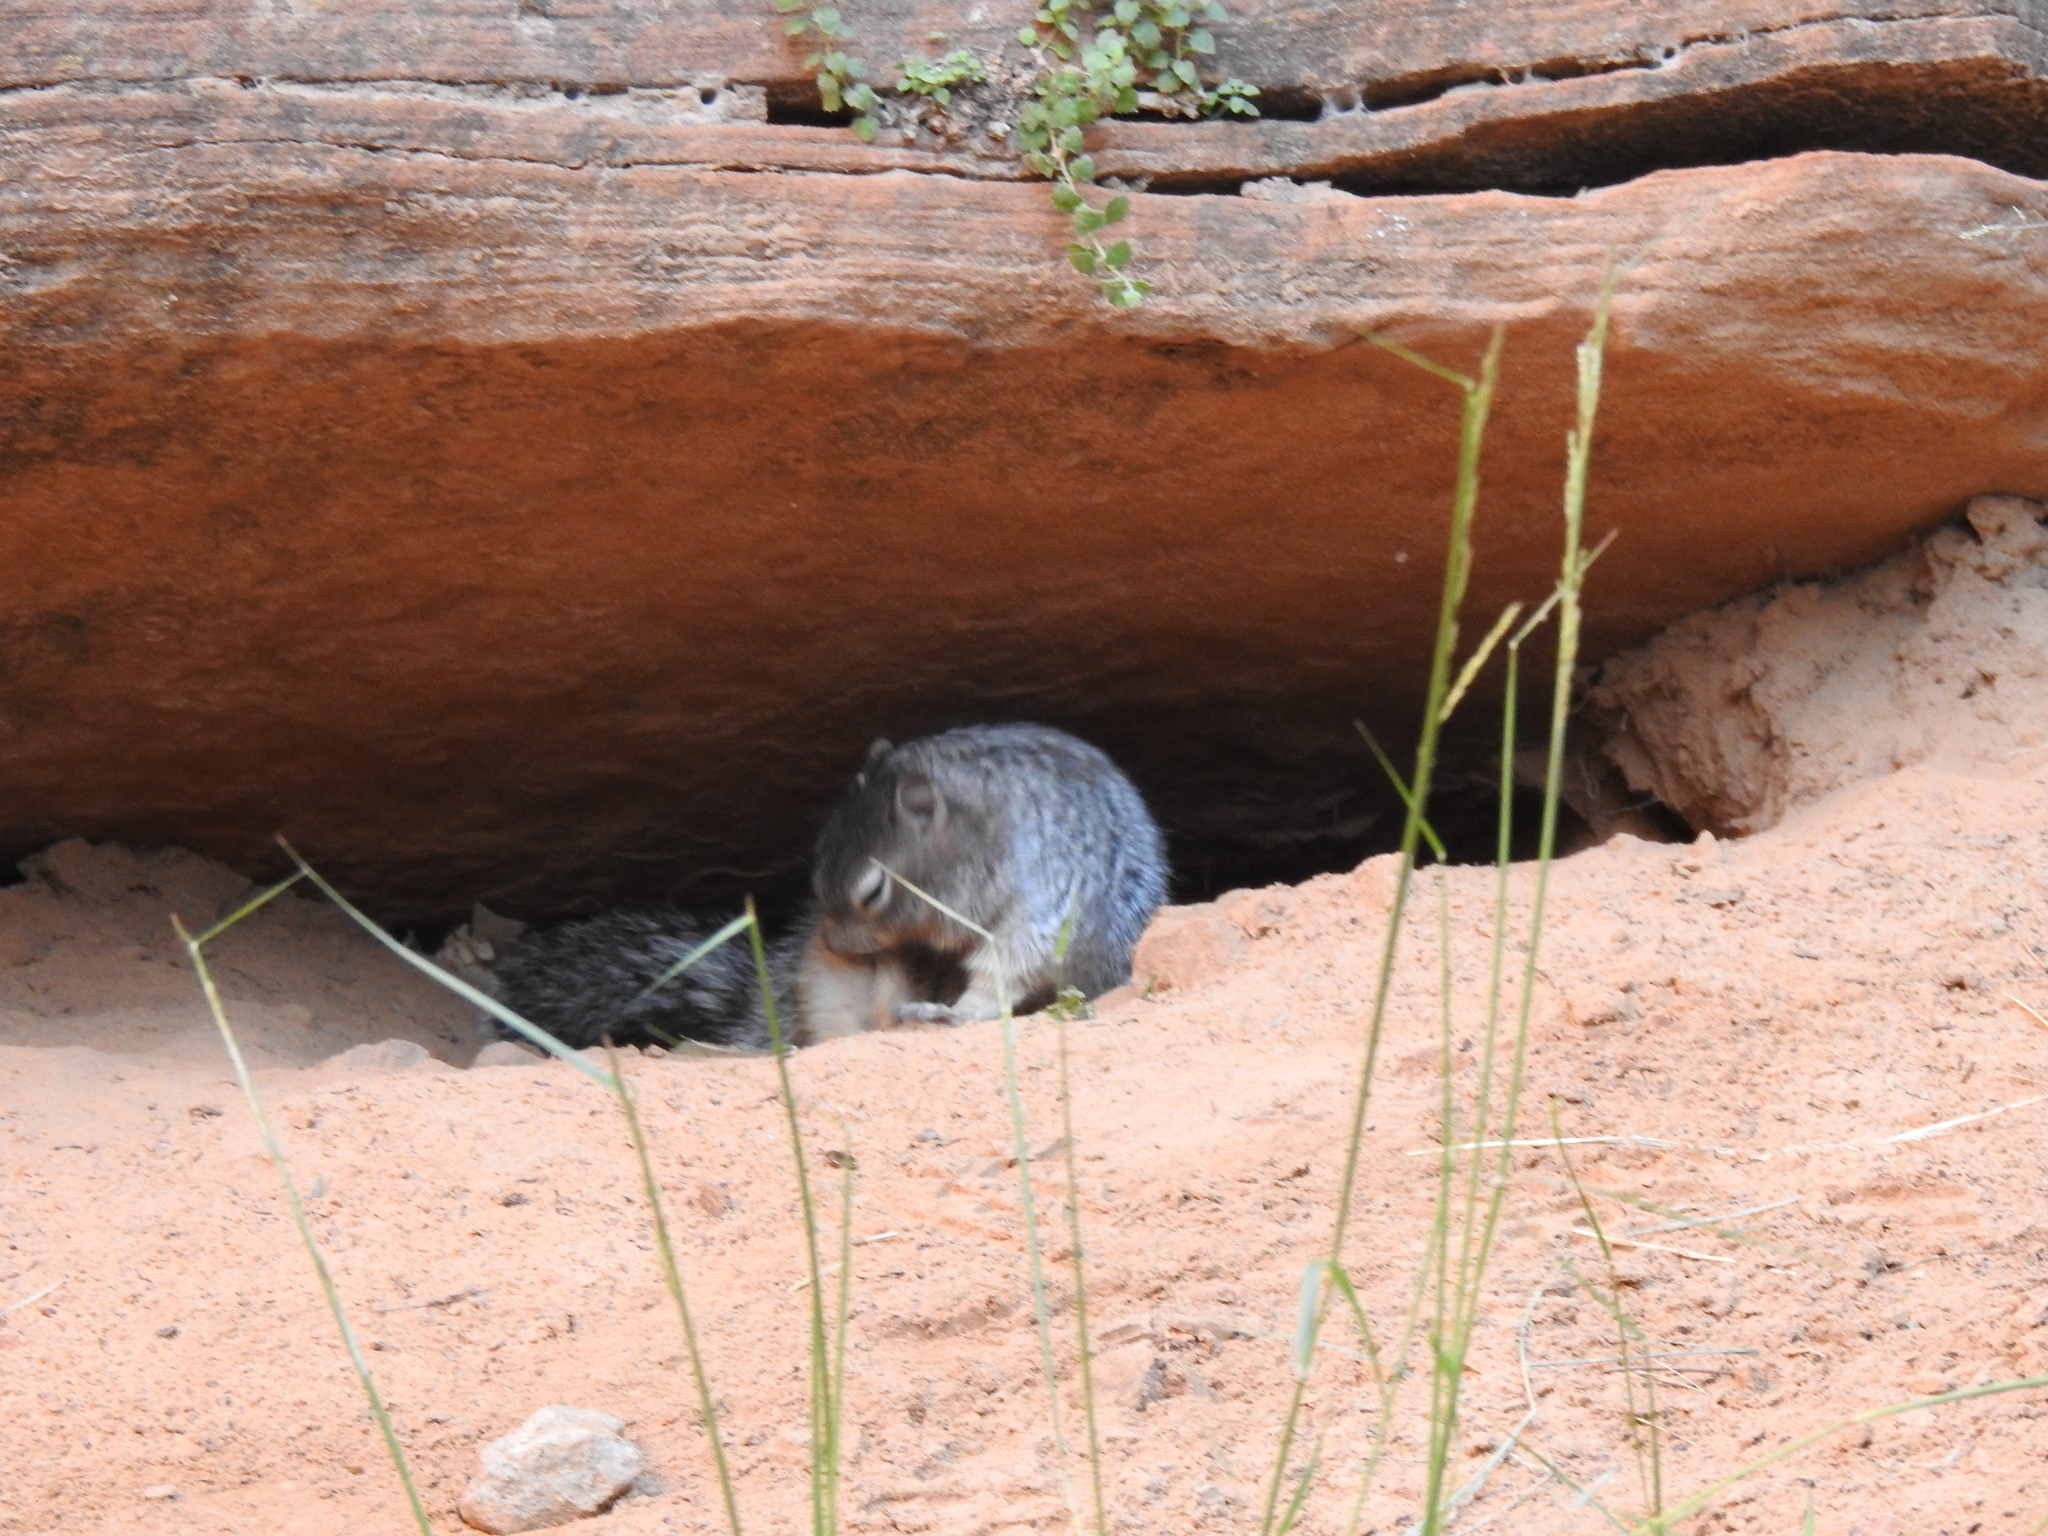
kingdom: Animalia
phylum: Chordata
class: Mammalia
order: Rodentia
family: Sciuridae
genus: Otospermophilus
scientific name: Otospermophilus variegatus
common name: Rock squirrel
